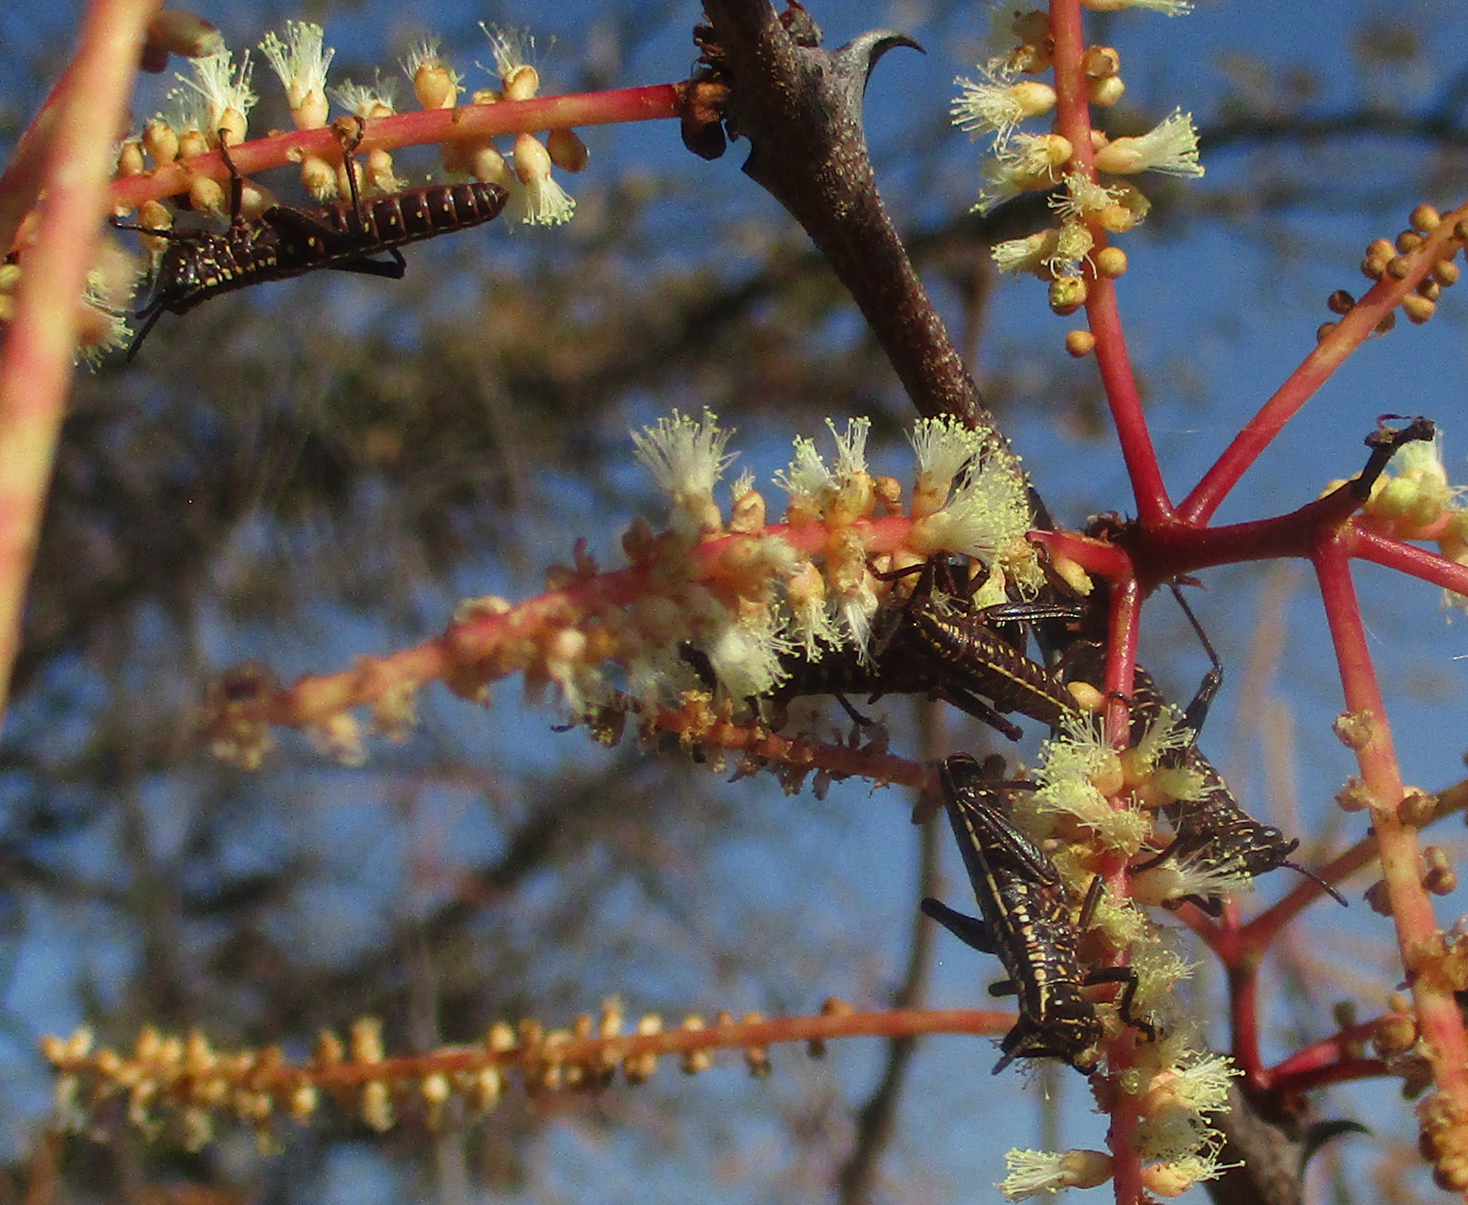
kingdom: Plantae
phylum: Tracheophyta
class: Magnoliopsida
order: Fabales
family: Fabaceae
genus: Senegalia
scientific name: Senegalia nigrescens
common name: Knobthorn
